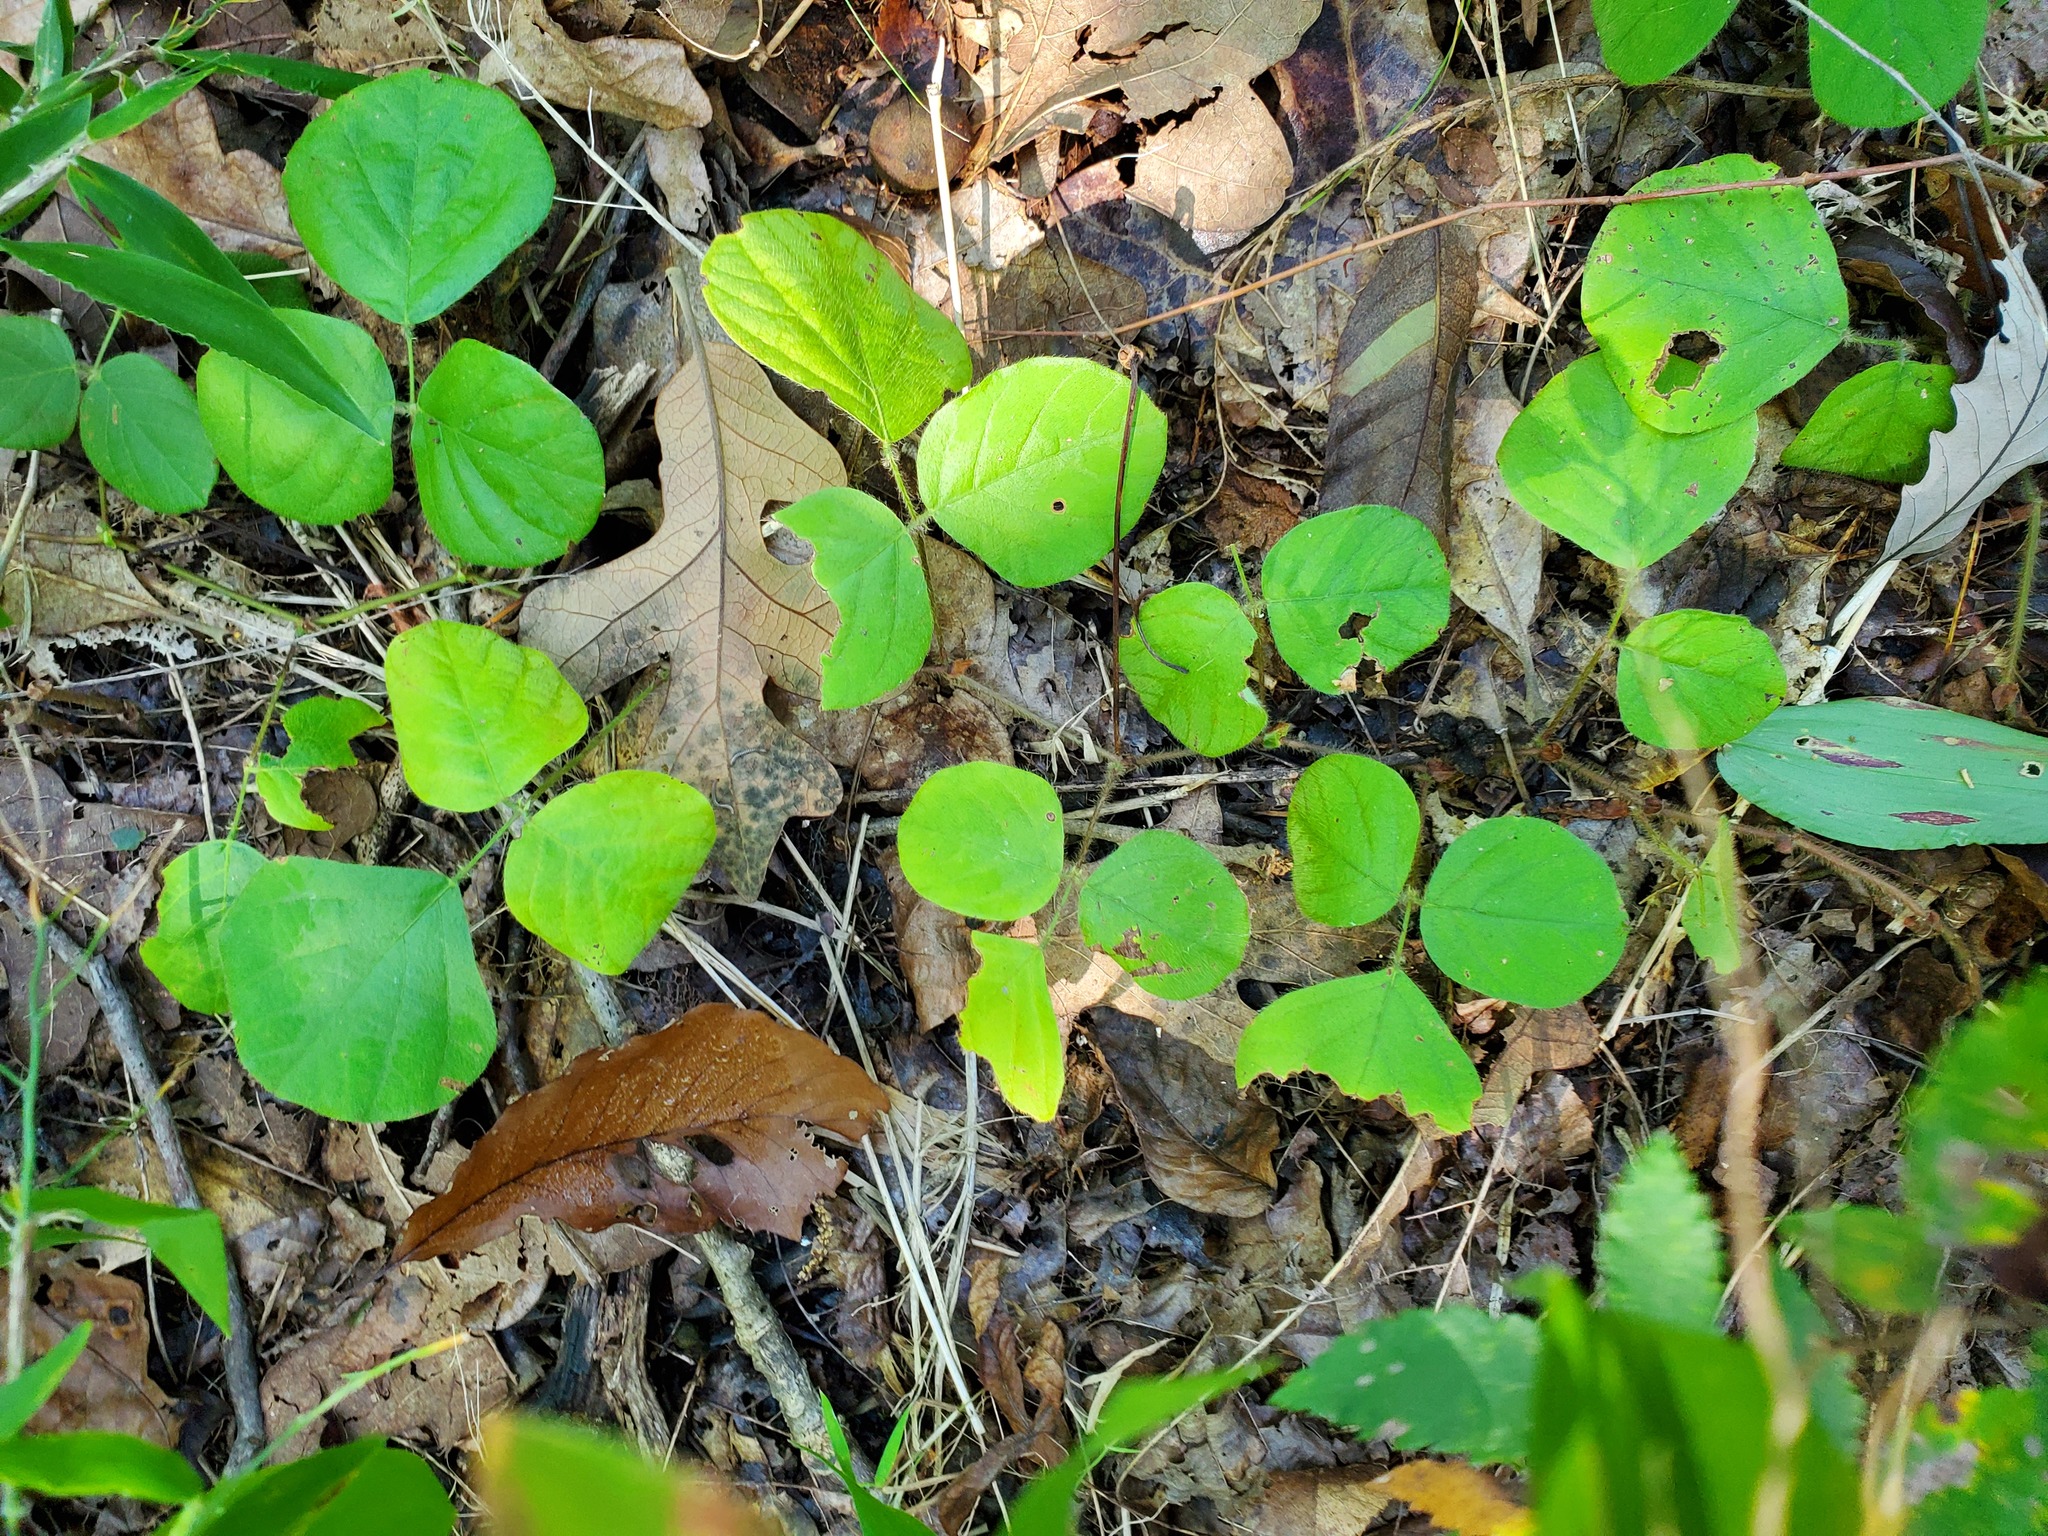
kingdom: Plantae
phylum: Tracheophyta
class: Magnoliopsida
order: Fabales
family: Fabaceae
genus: Desmodium
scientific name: Desmodium rotundifolium
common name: Dollarleaf
